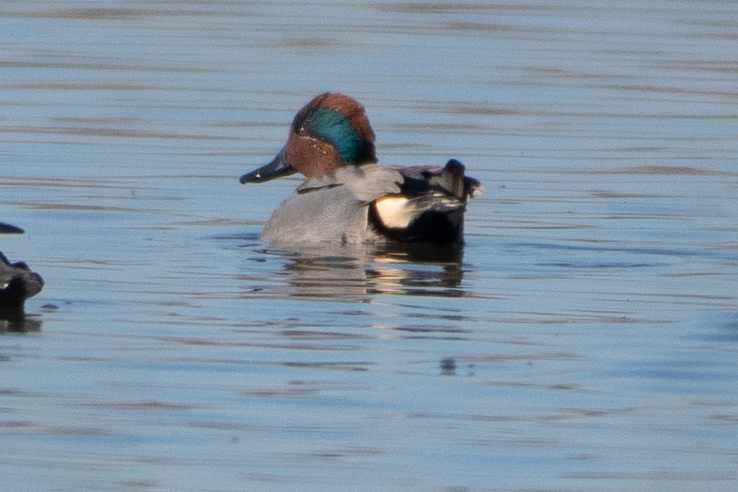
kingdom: Animalia
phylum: Chordata
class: Aves
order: Anseriformes
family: Anatidae
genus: Anas
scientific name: Anas crecca
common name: Eurasian teal
